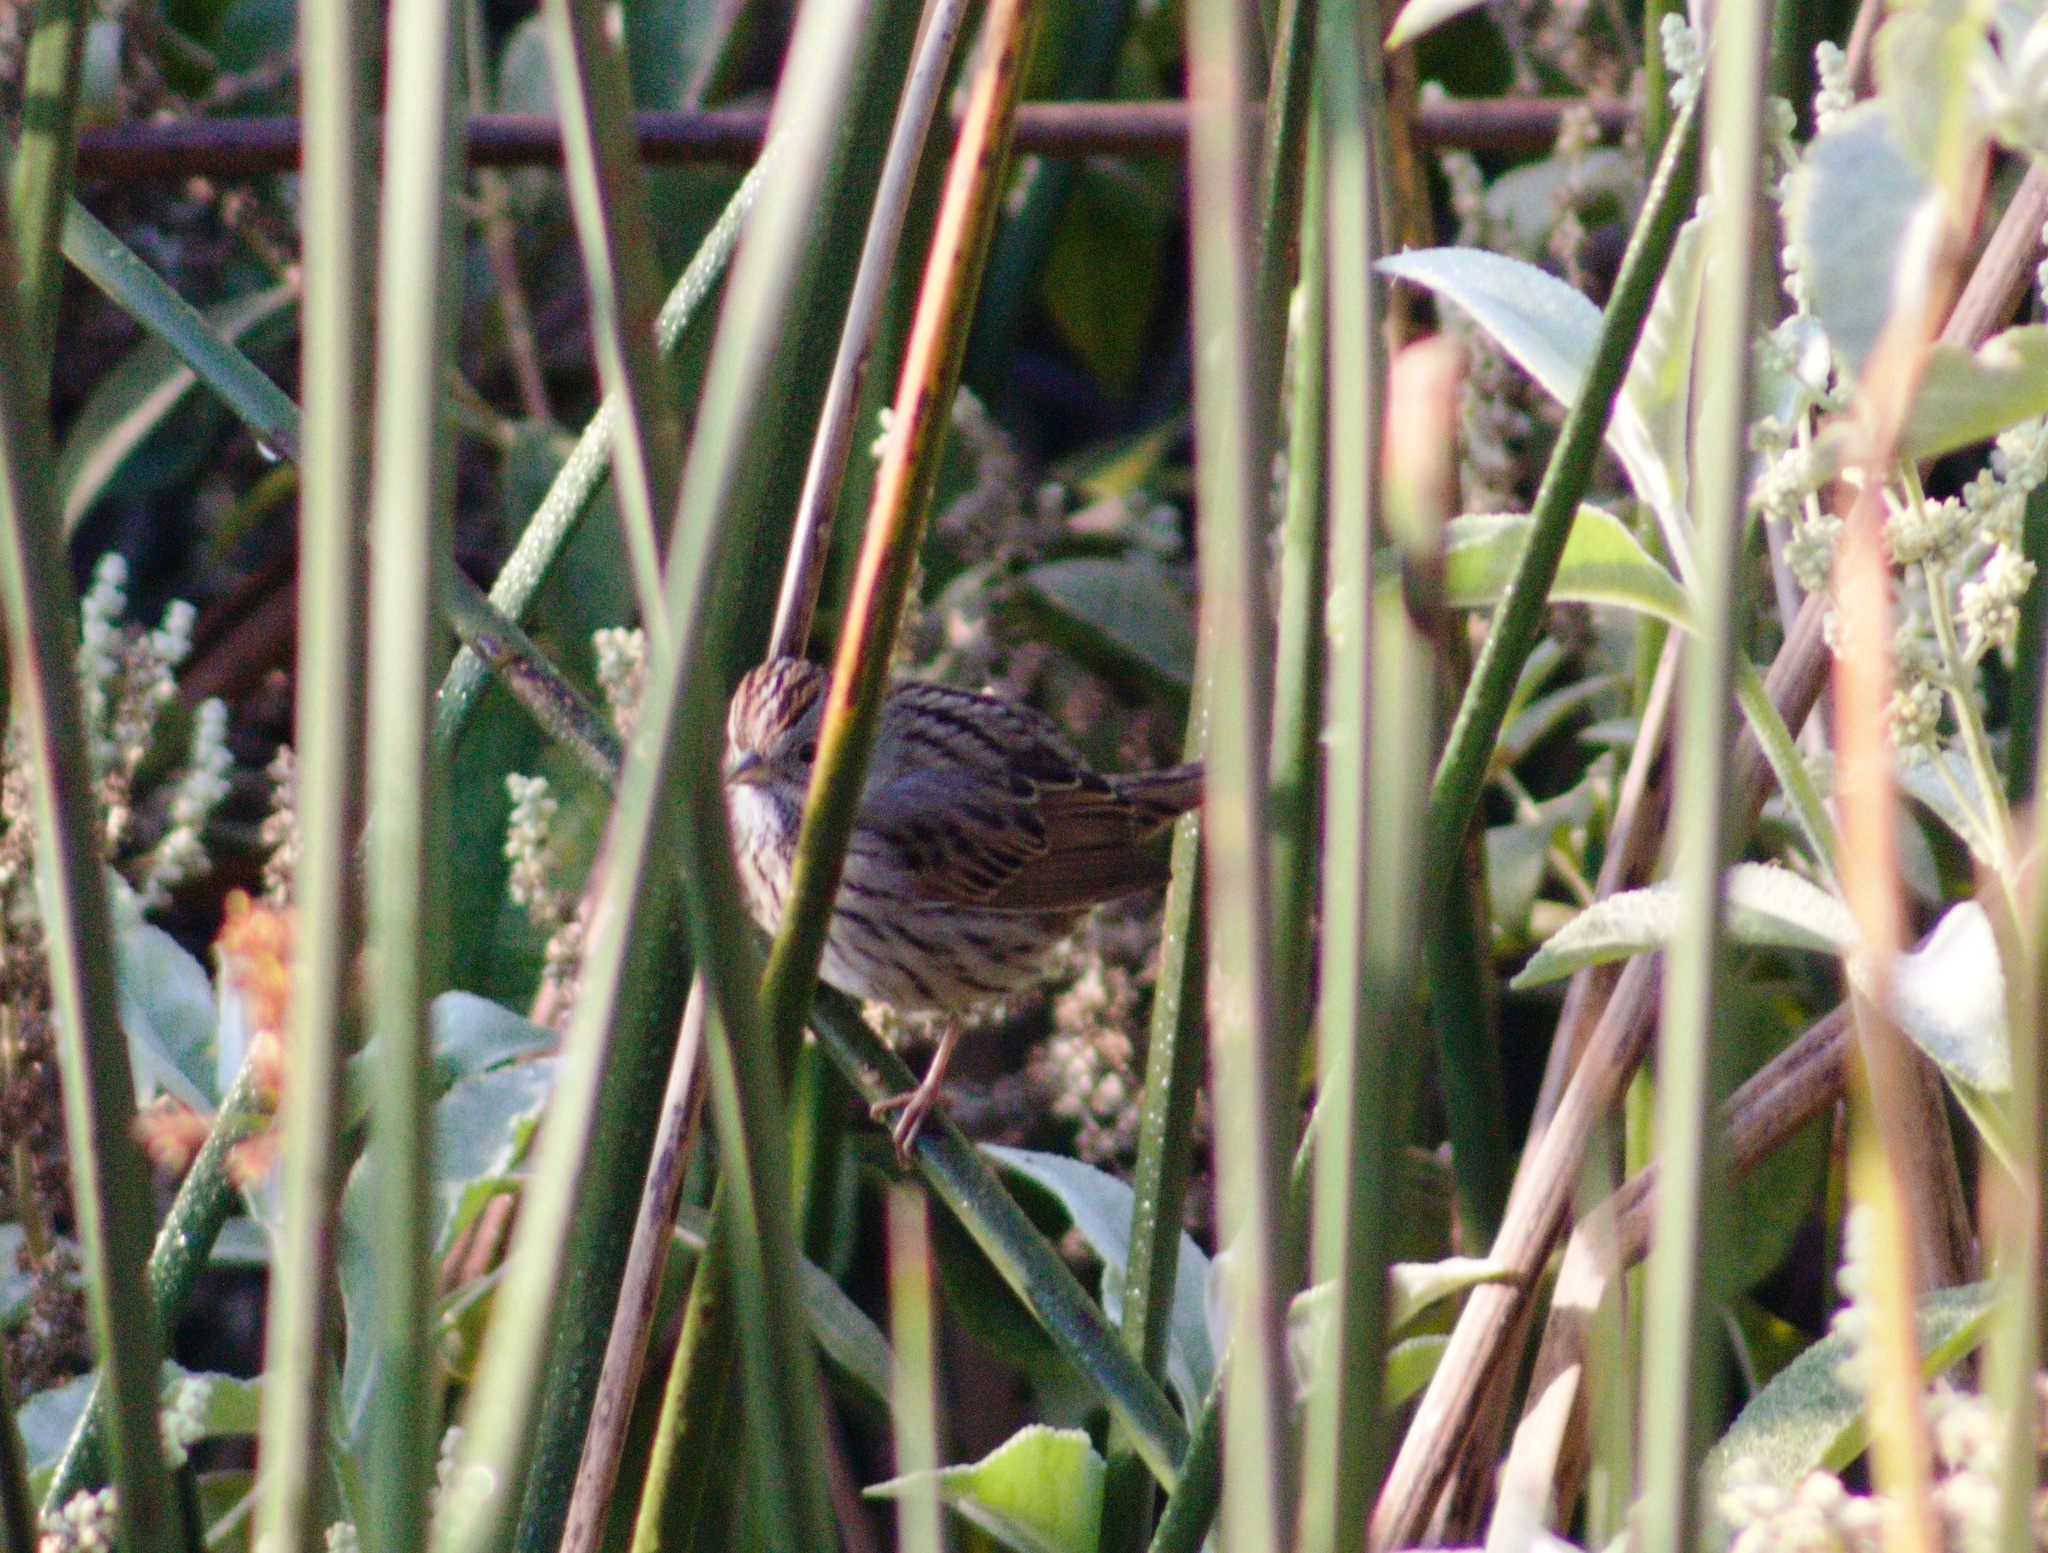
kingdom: Animalia
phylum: Chordata
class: Aves
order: Passeriformes
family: Passerellidae
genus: Melospiza
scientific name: Melospiza lincolnii
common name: Lincoln's sparrow
